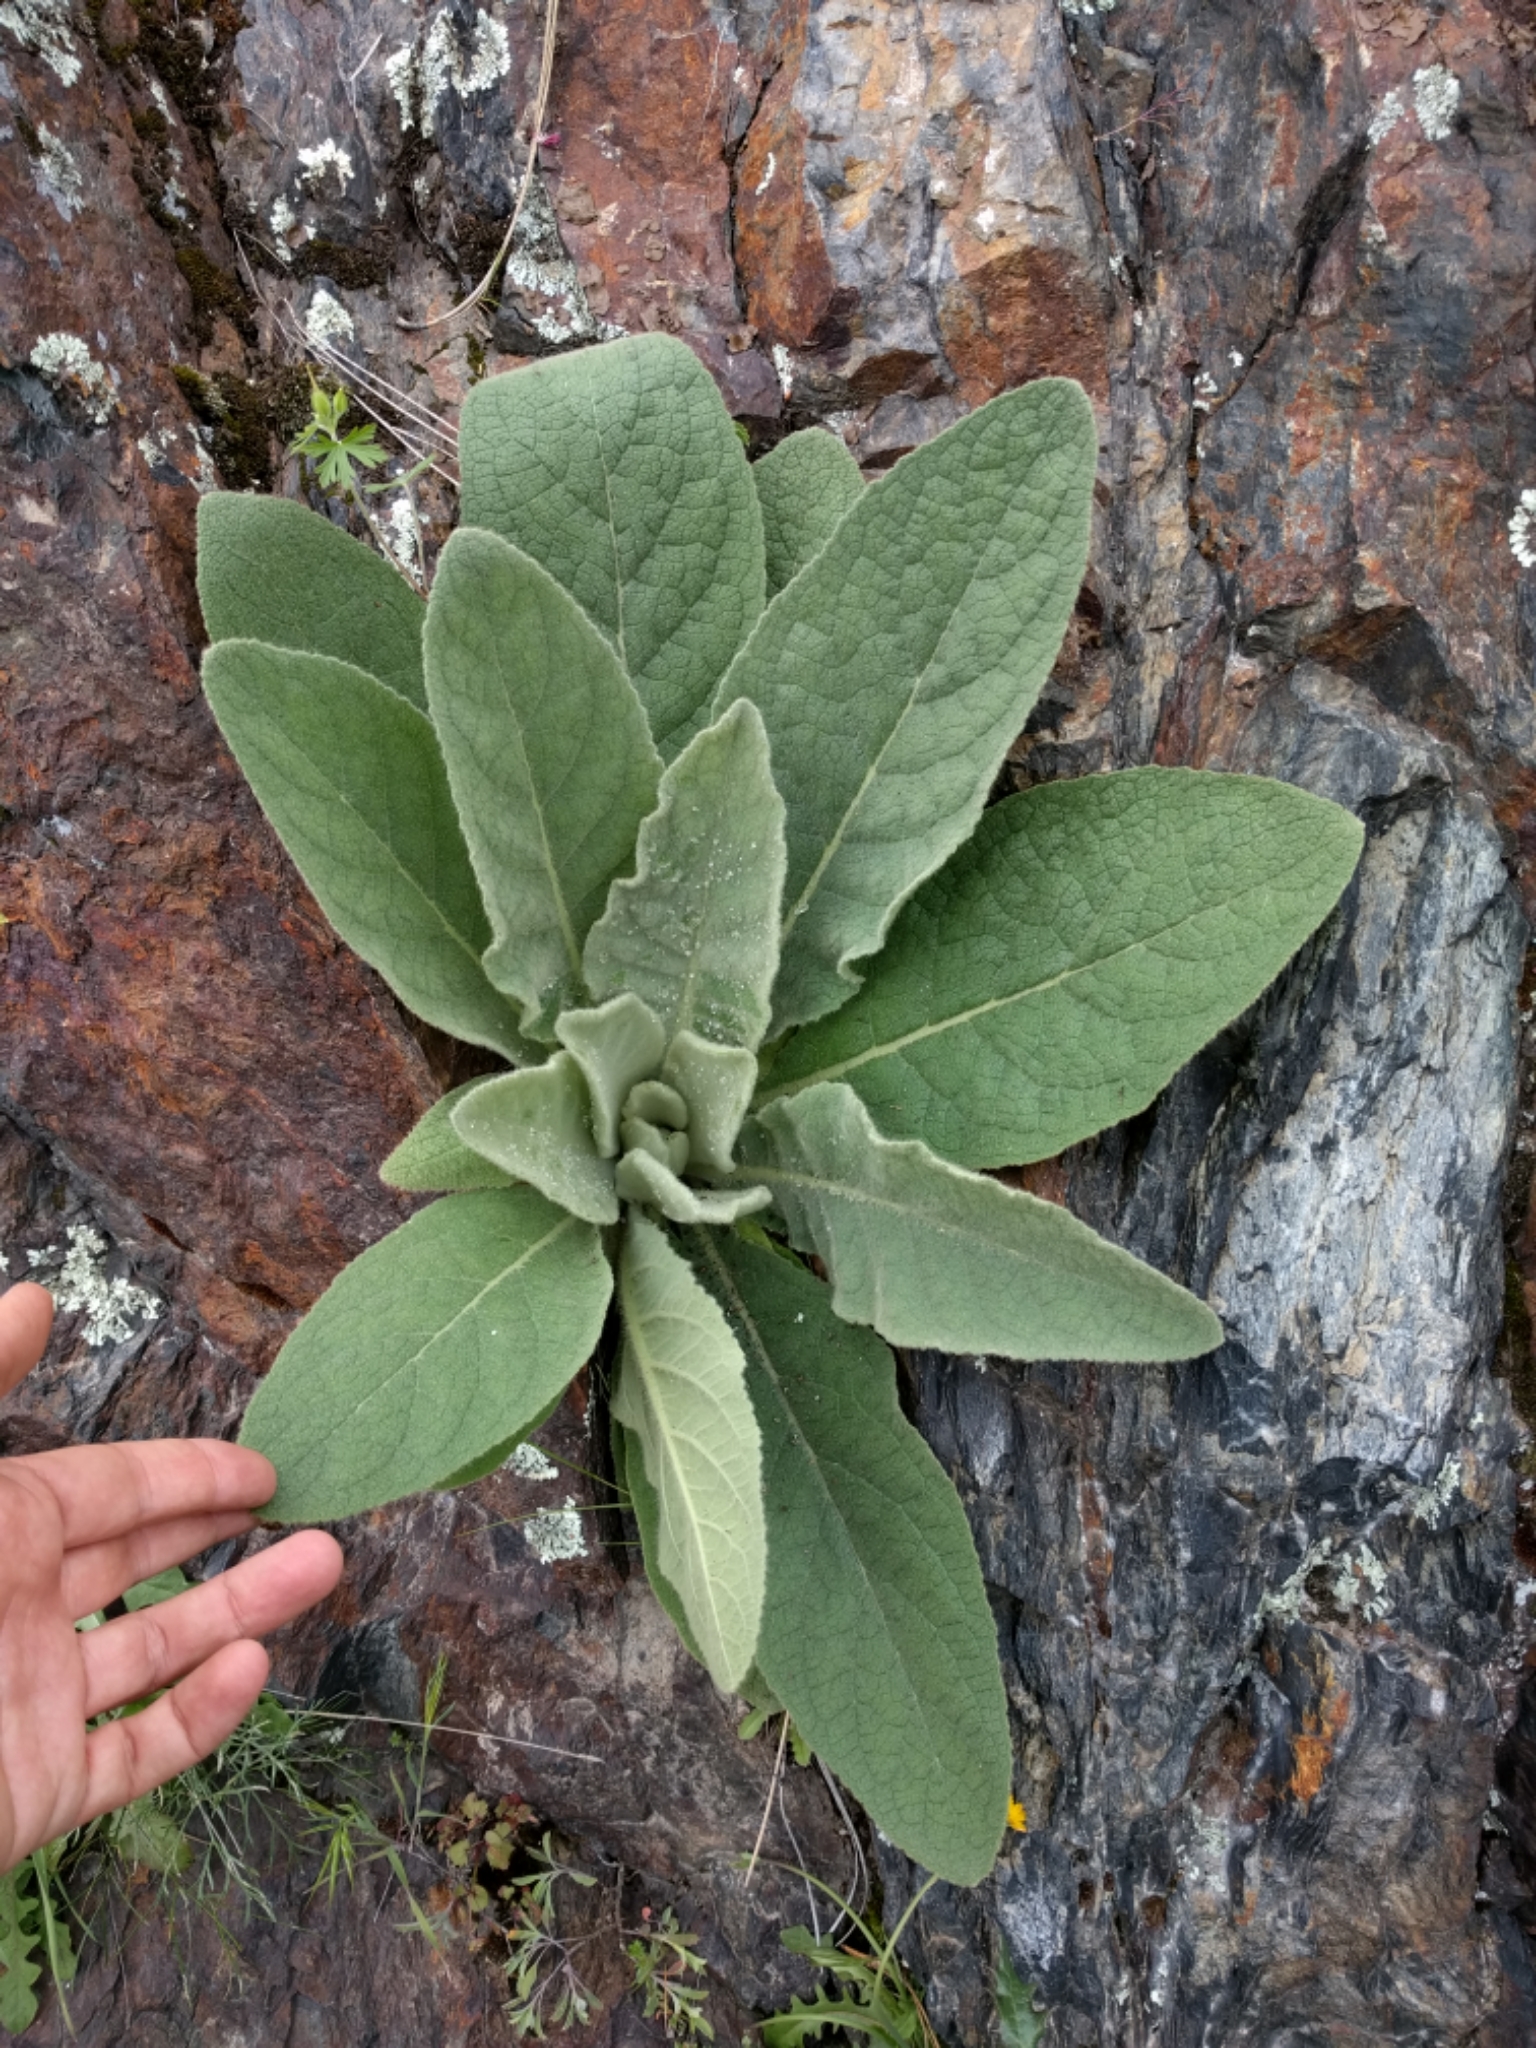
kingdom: Plantae
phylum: Tracheophyta
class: Magnoliopsida
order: Lamiales
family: Scrophulariaceae
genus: Verbascum
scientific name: Verbascum thapsus
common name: Common mullein
